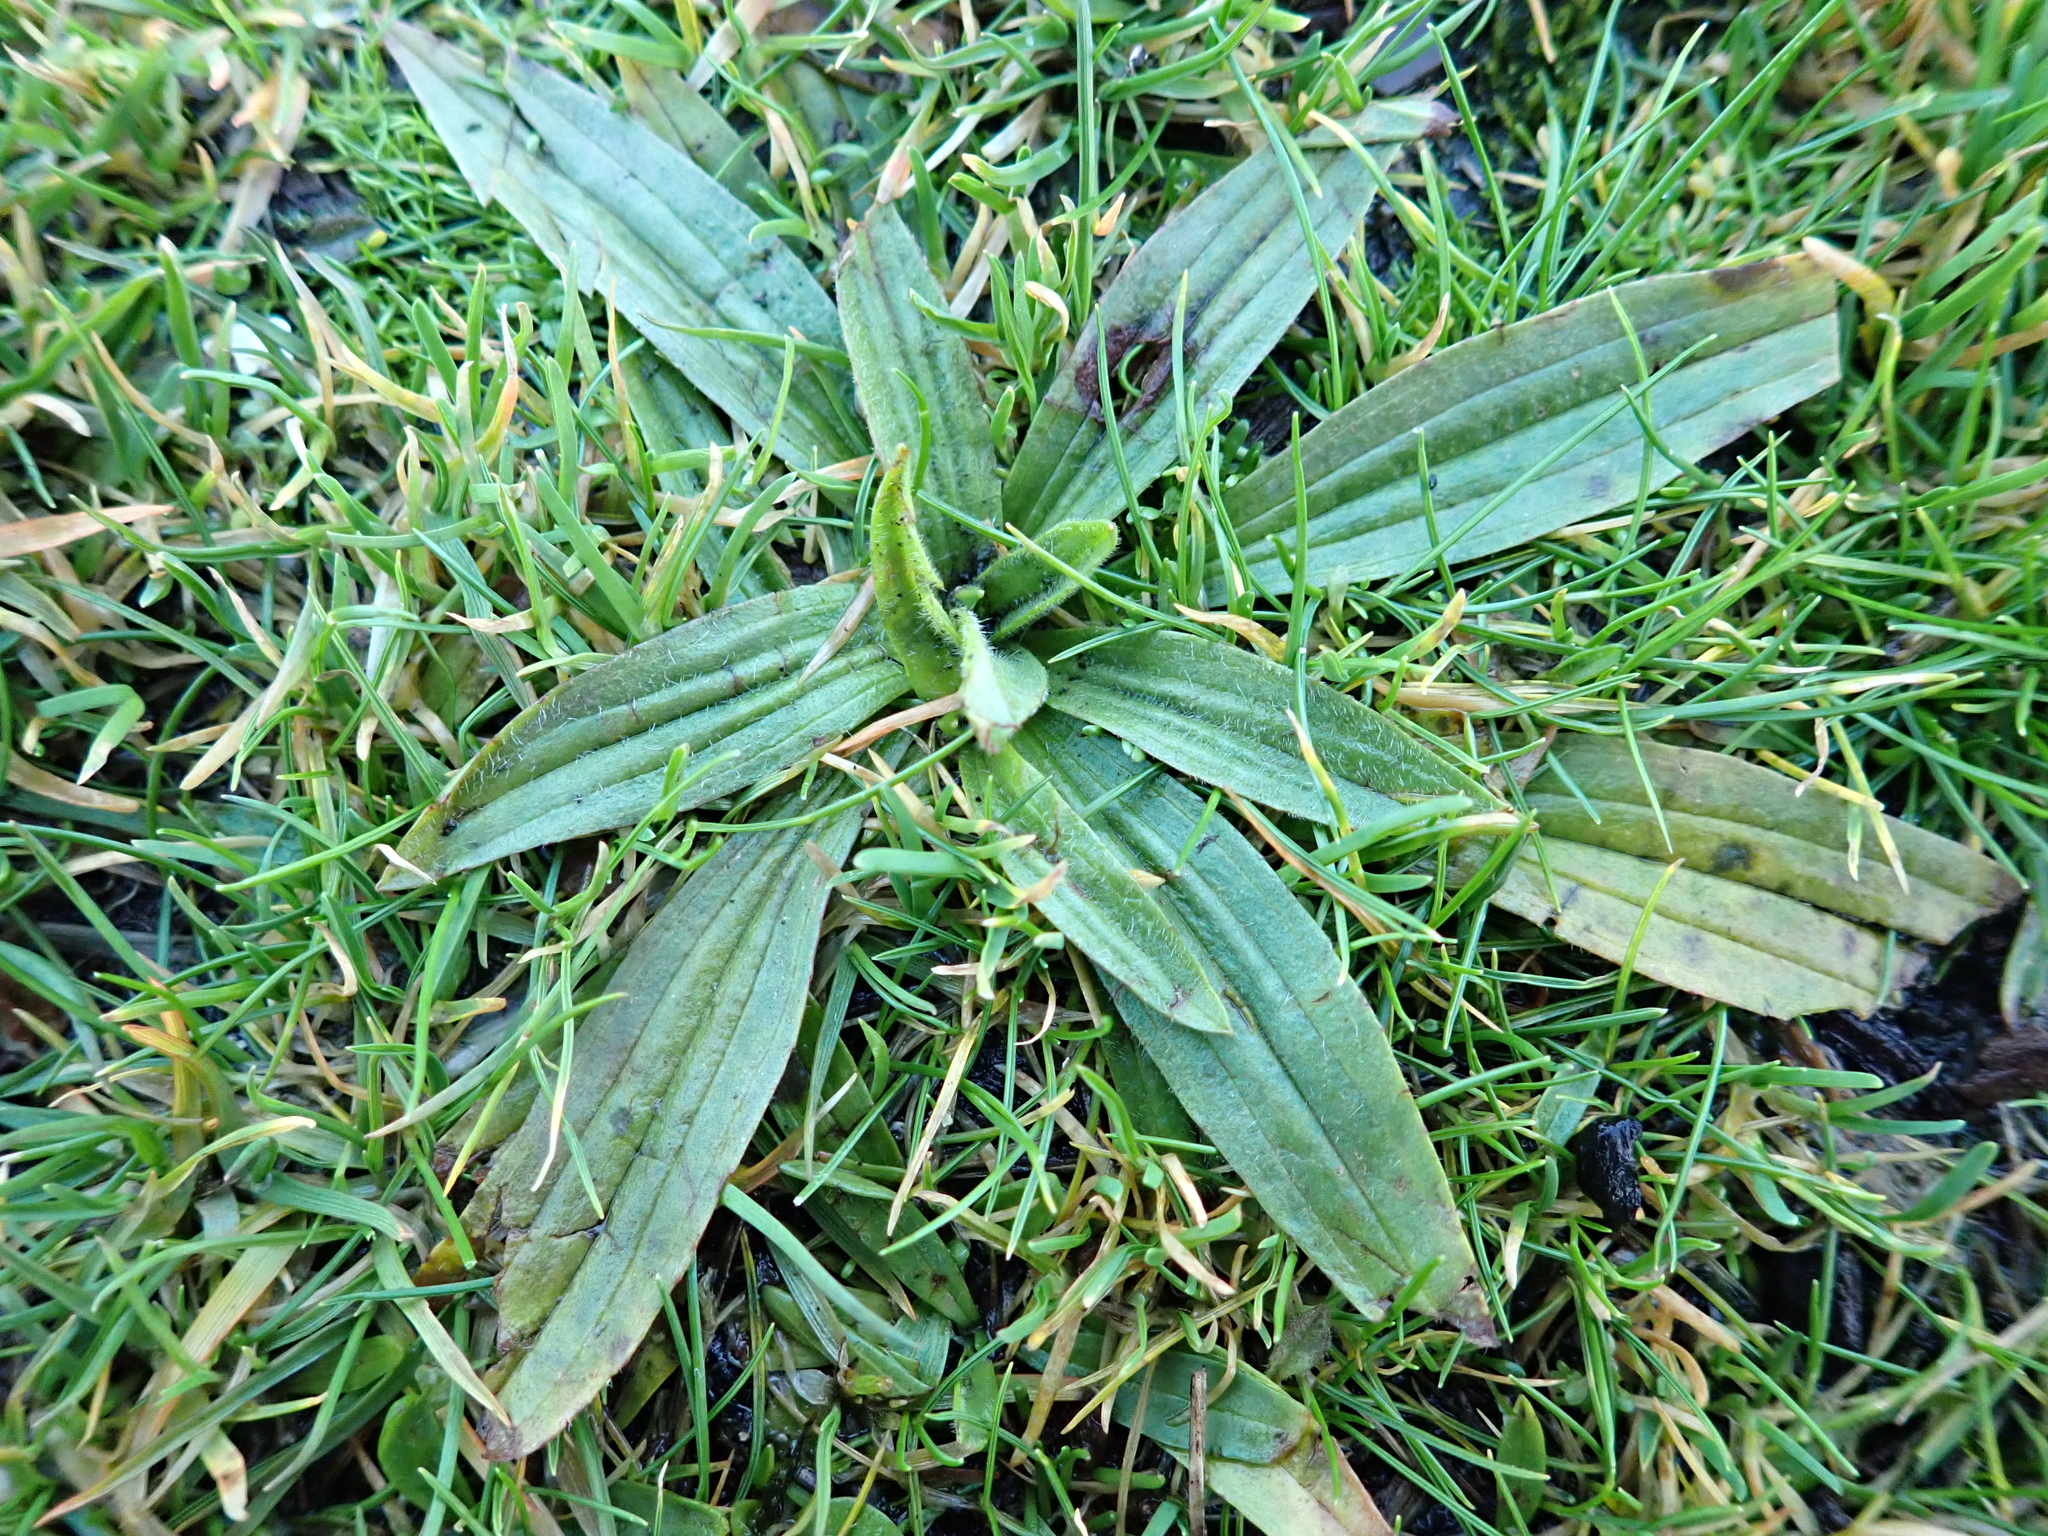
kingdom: Plantae
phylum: Tracheophyta
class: Magnoliopsida
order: Lamiales
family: Plantaginaceae
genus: Plantago
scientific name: Plantago lanceolata
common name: Ribwort plantain
